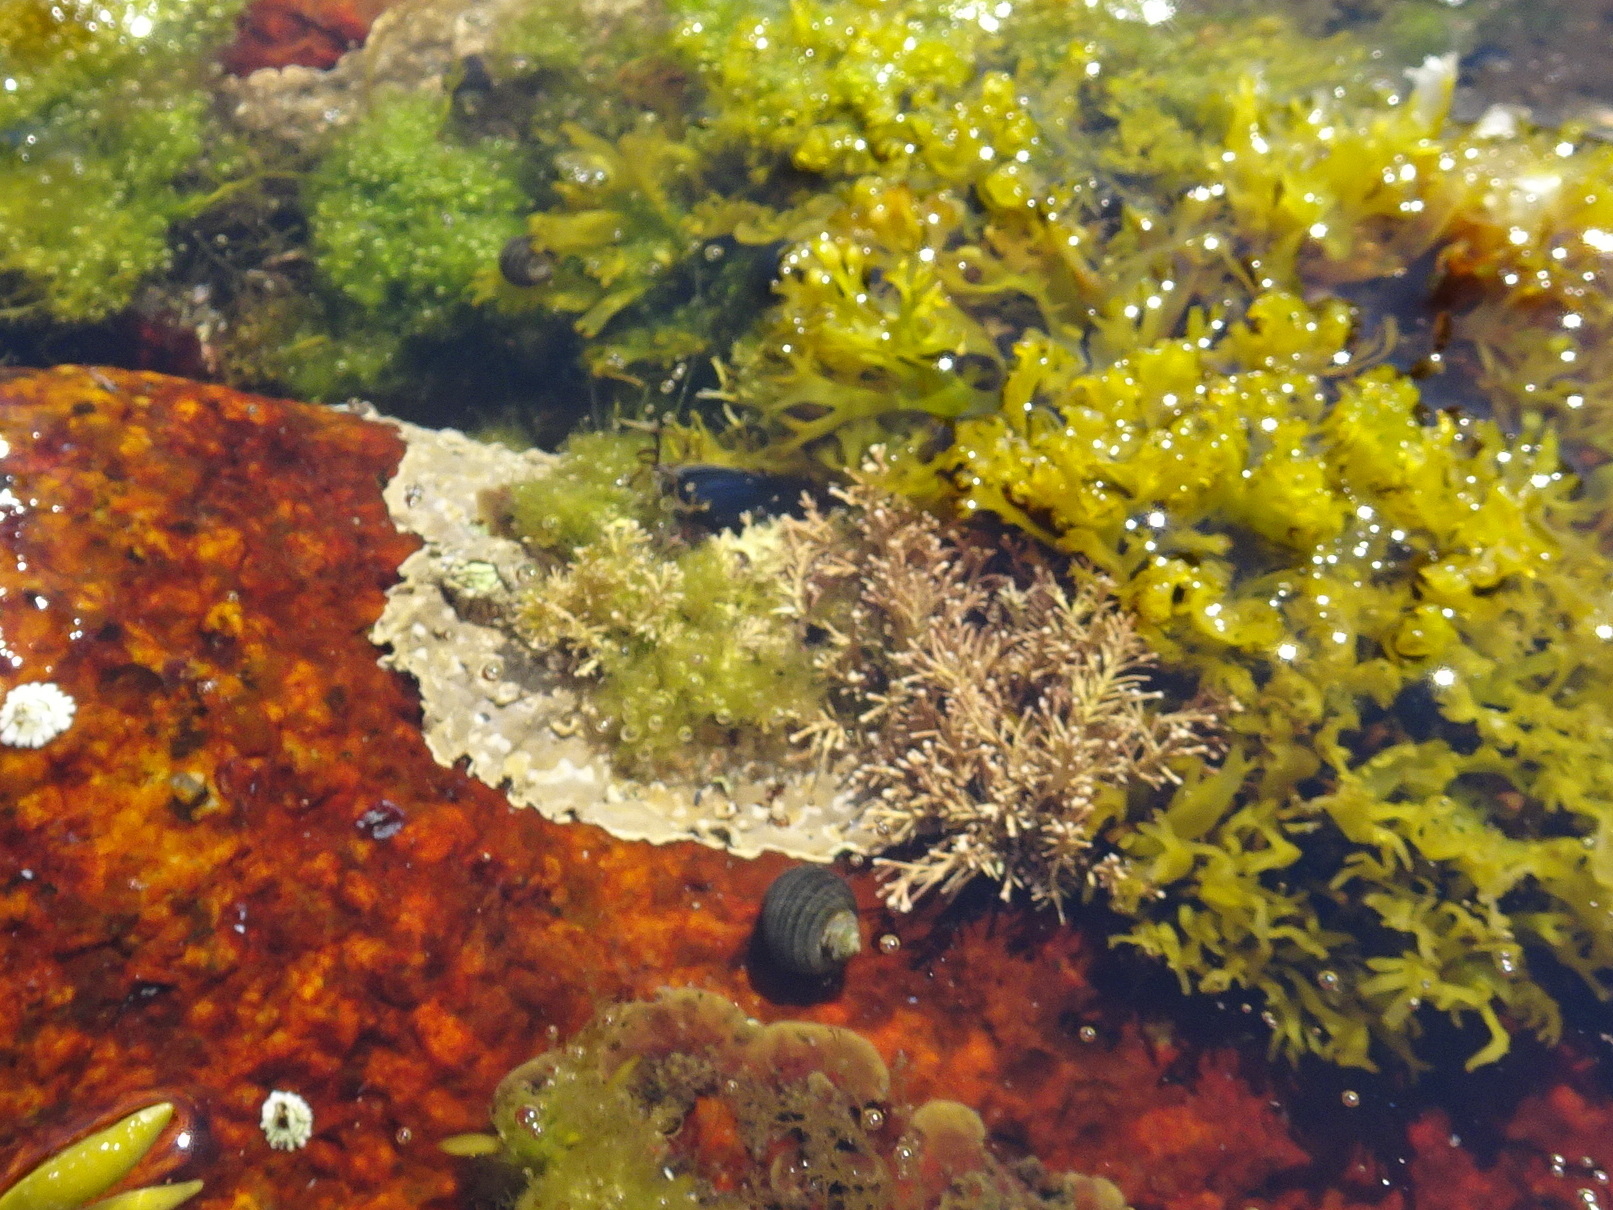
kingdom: Plantae
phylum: Rhodophyta
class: Florideophyceae
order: Corallinales
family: Corallinaceae
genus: Corallina
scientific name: Corallina officinalis
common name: Coral weed
